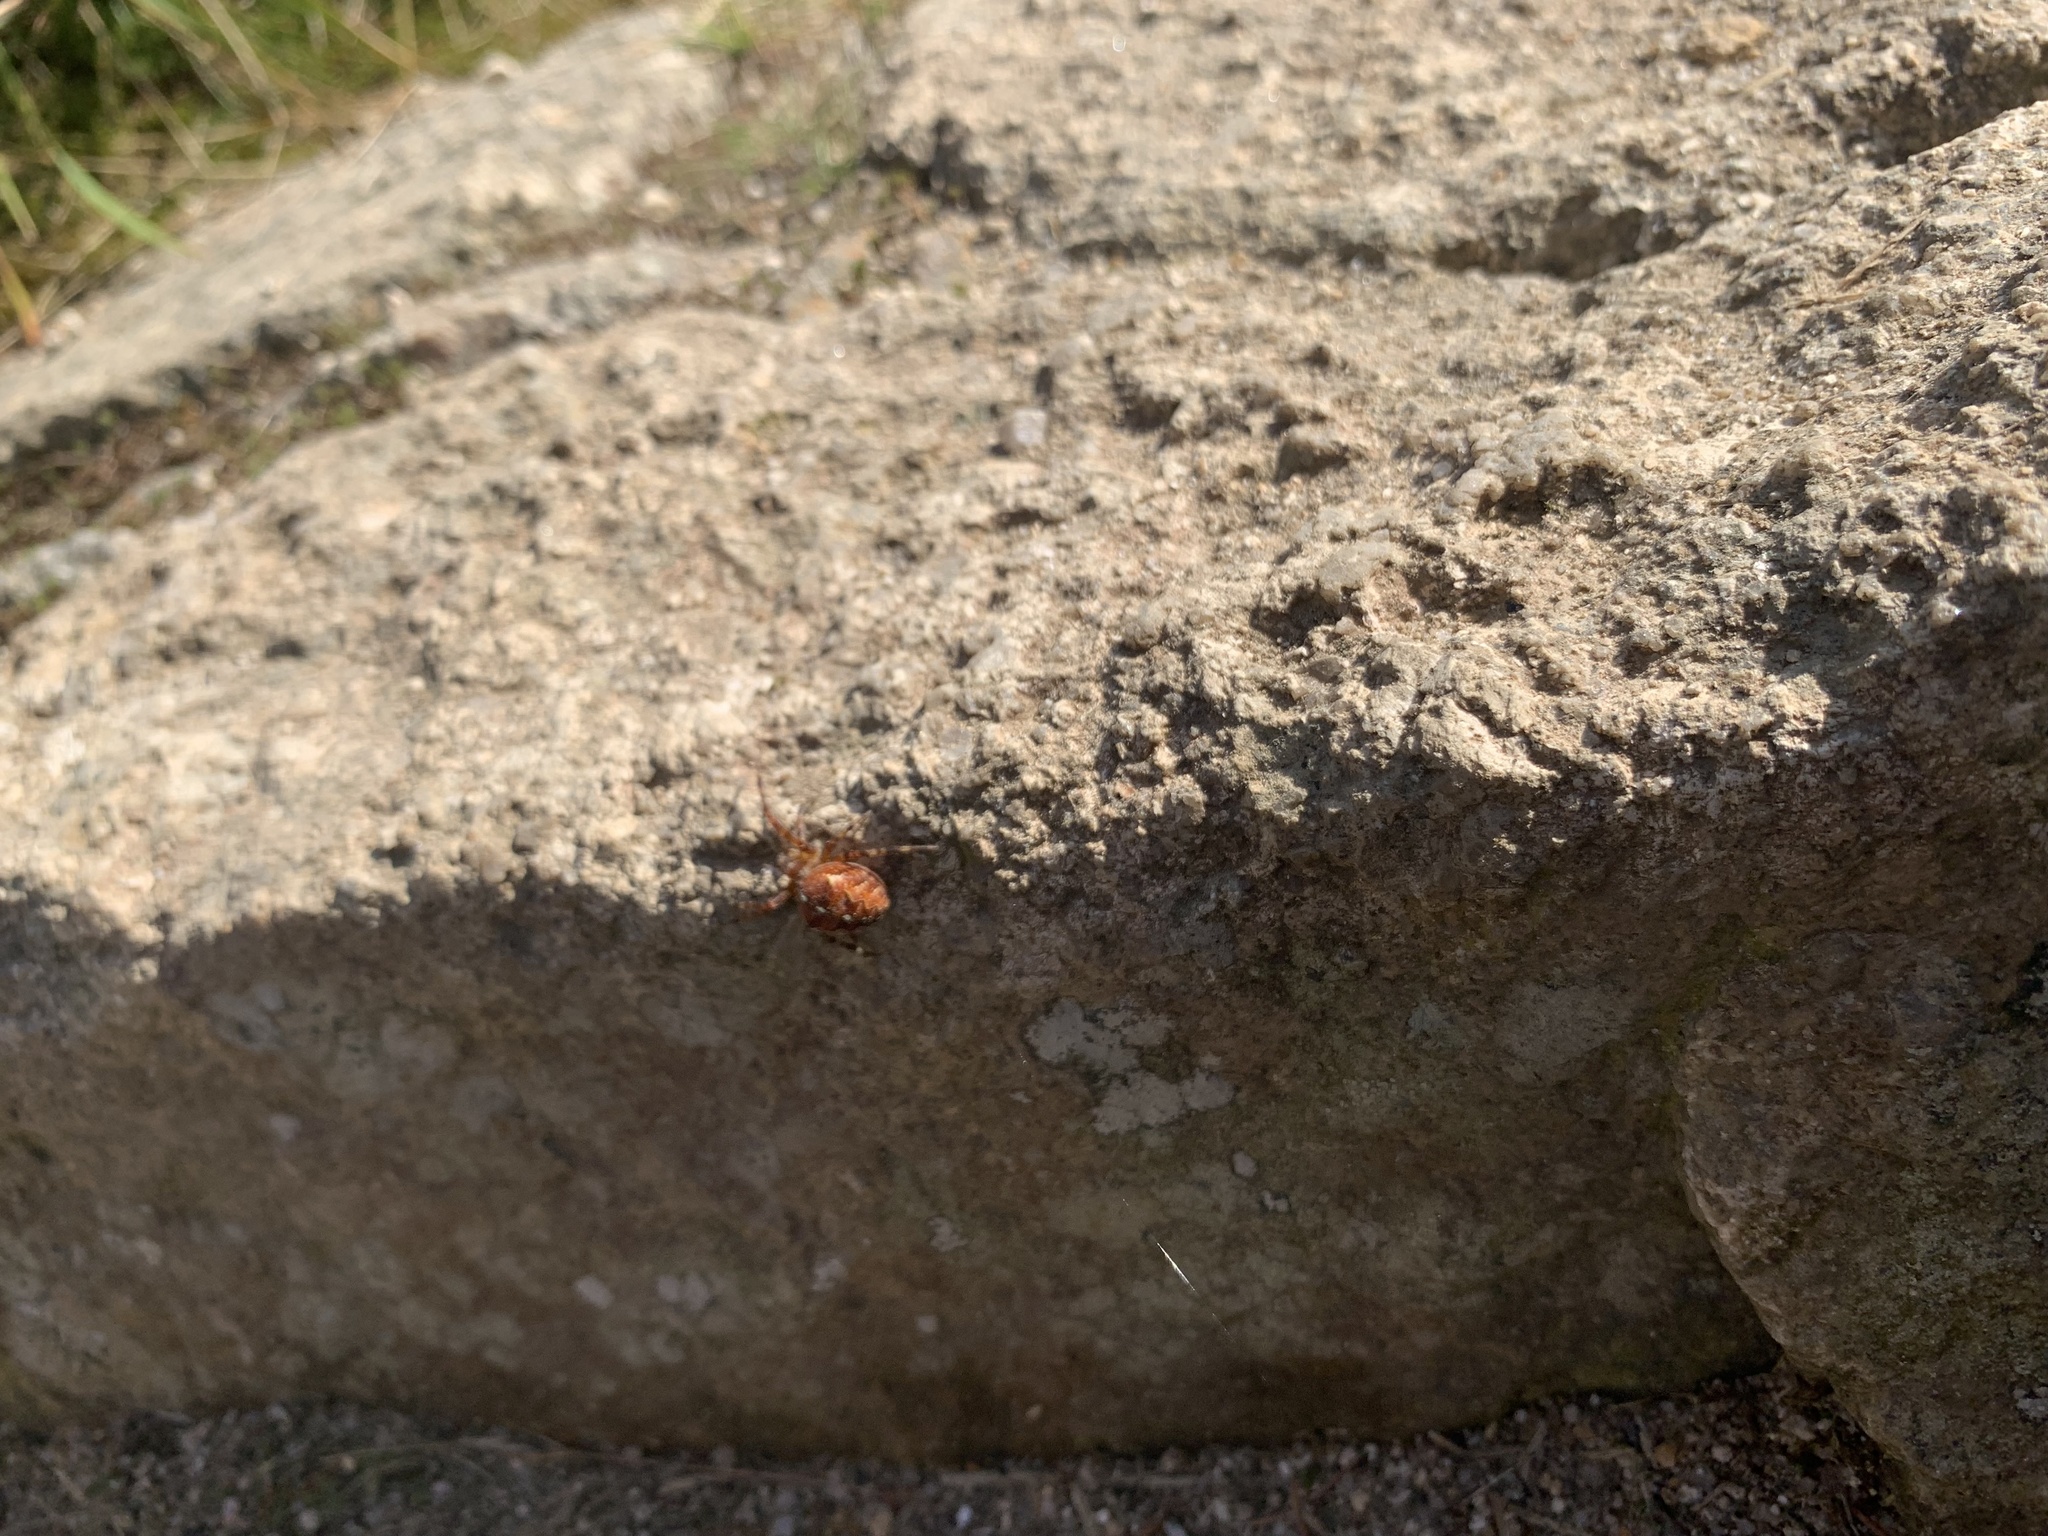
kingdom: Animalia
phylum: Arthropoda
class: Arachnida
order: Araneae
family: Araneidae
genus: Araneus
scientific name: Araneus diadematus
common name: Cross orbweaver
